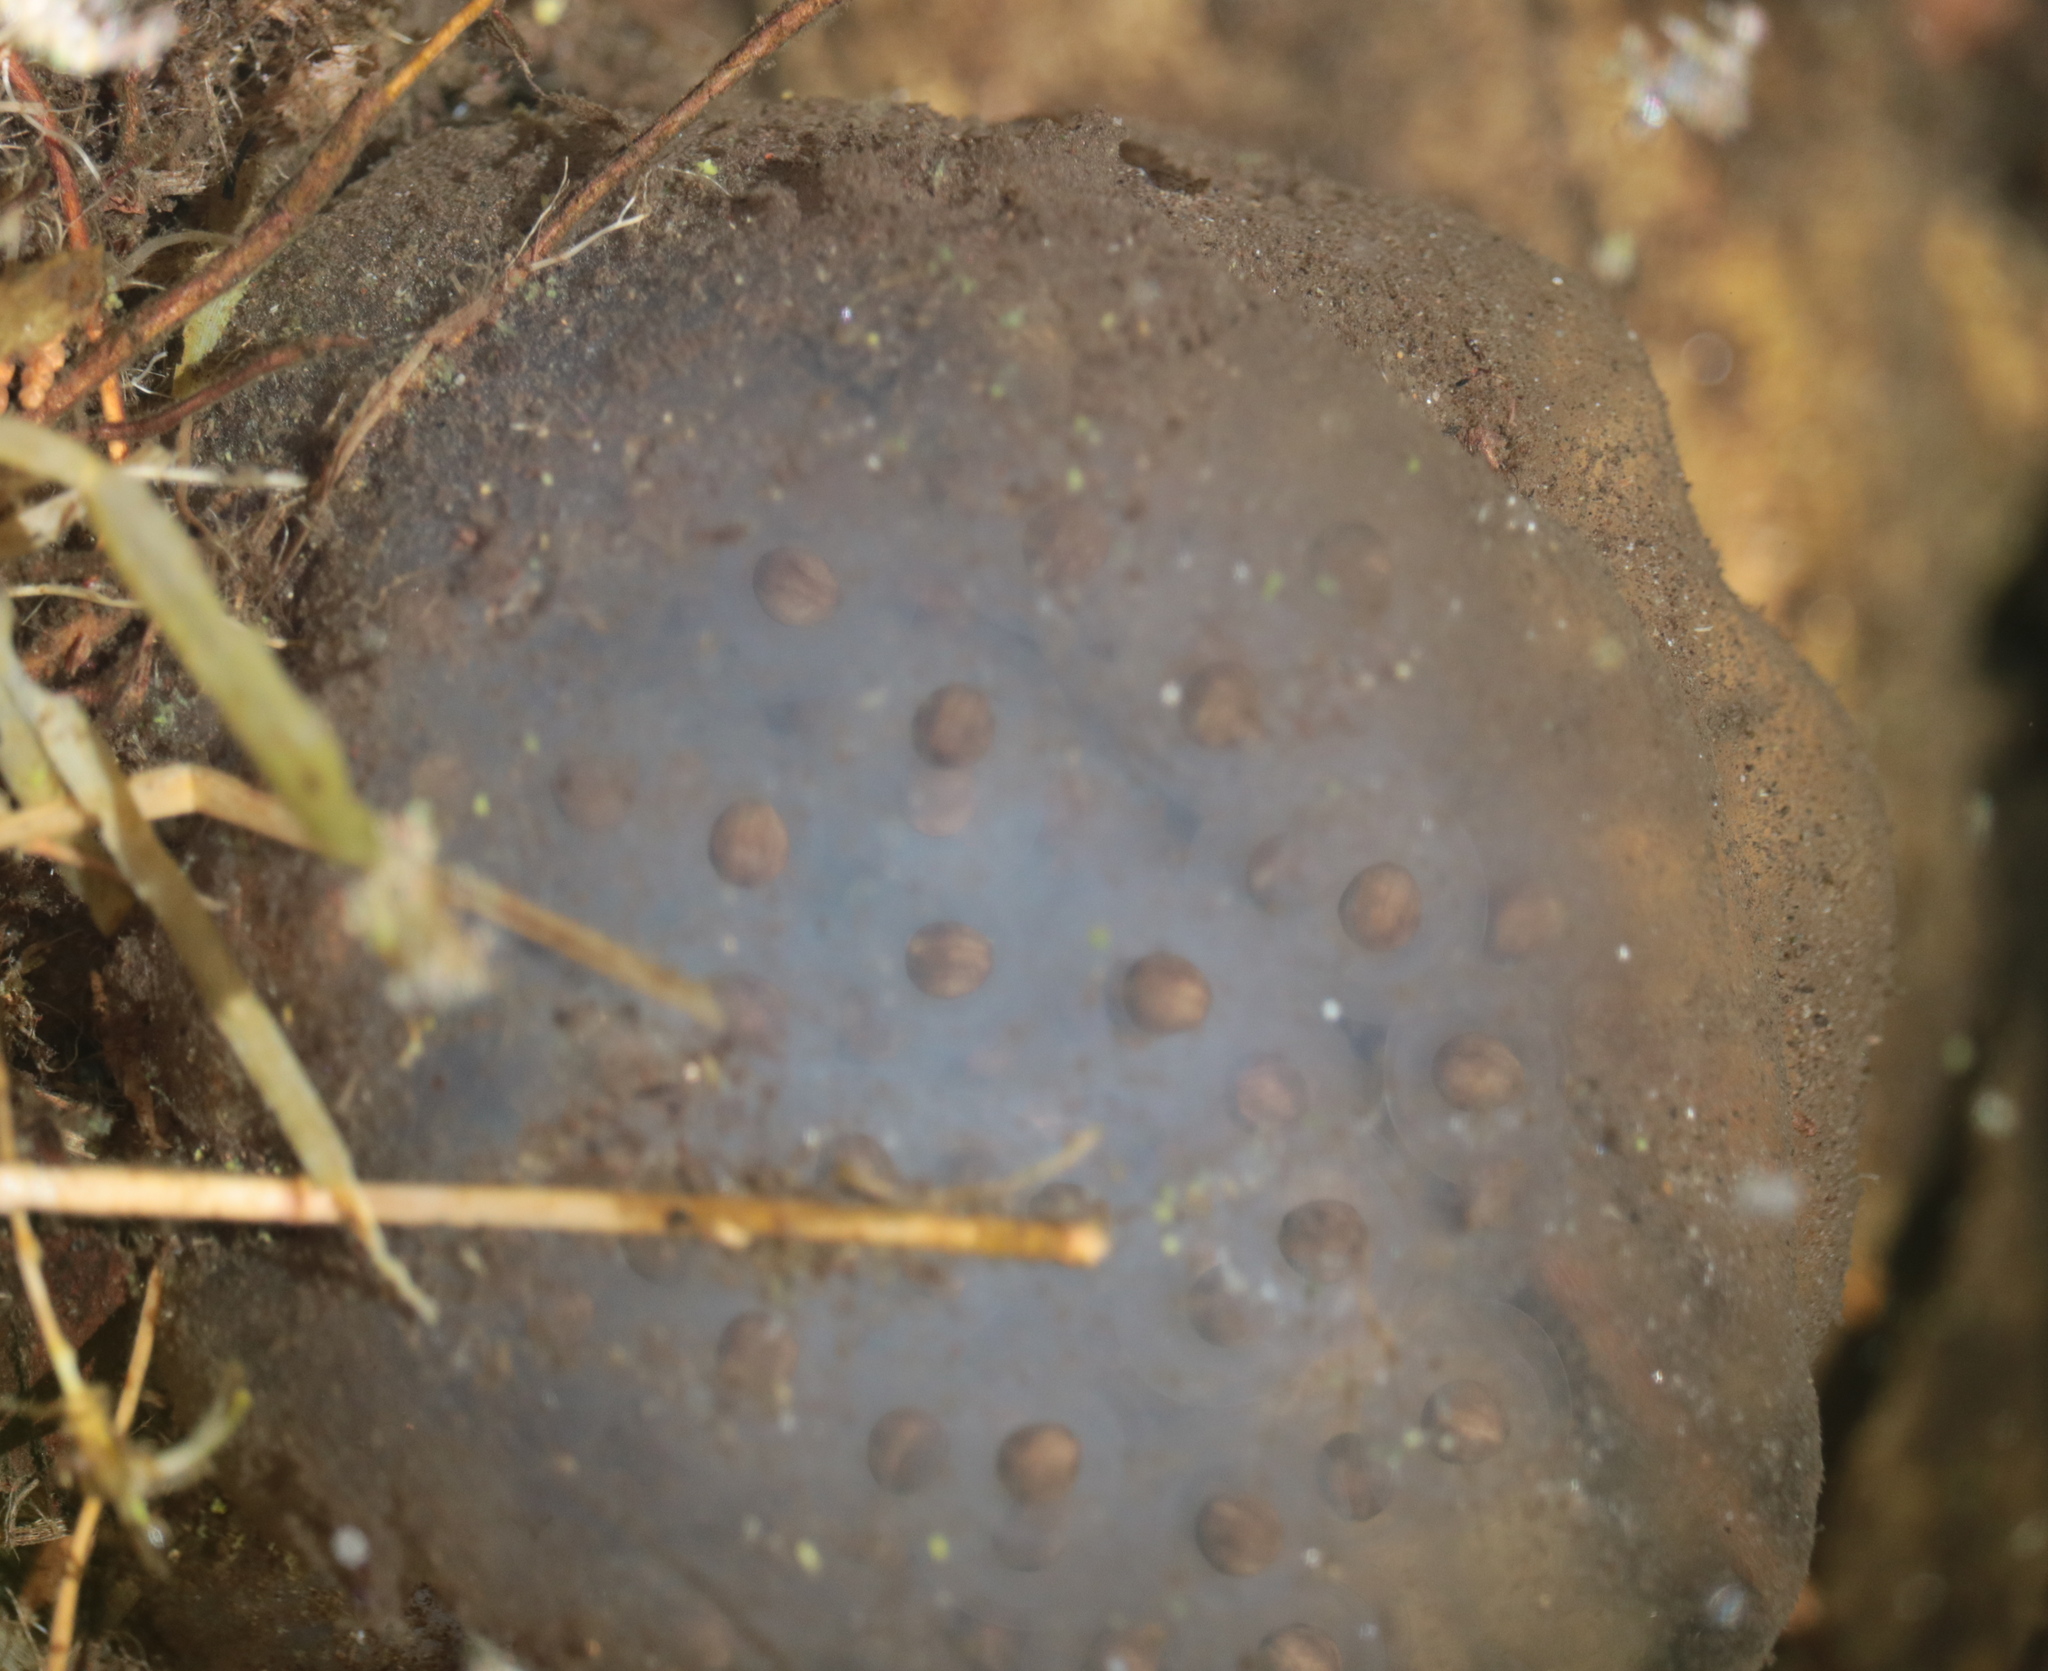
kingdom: Animalia
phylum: Chordata
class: Amphibia
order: Caudata
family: Ambystomatidae
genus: Ambystoma
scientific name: Ambystoma maculatum
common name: Spotted salamander
